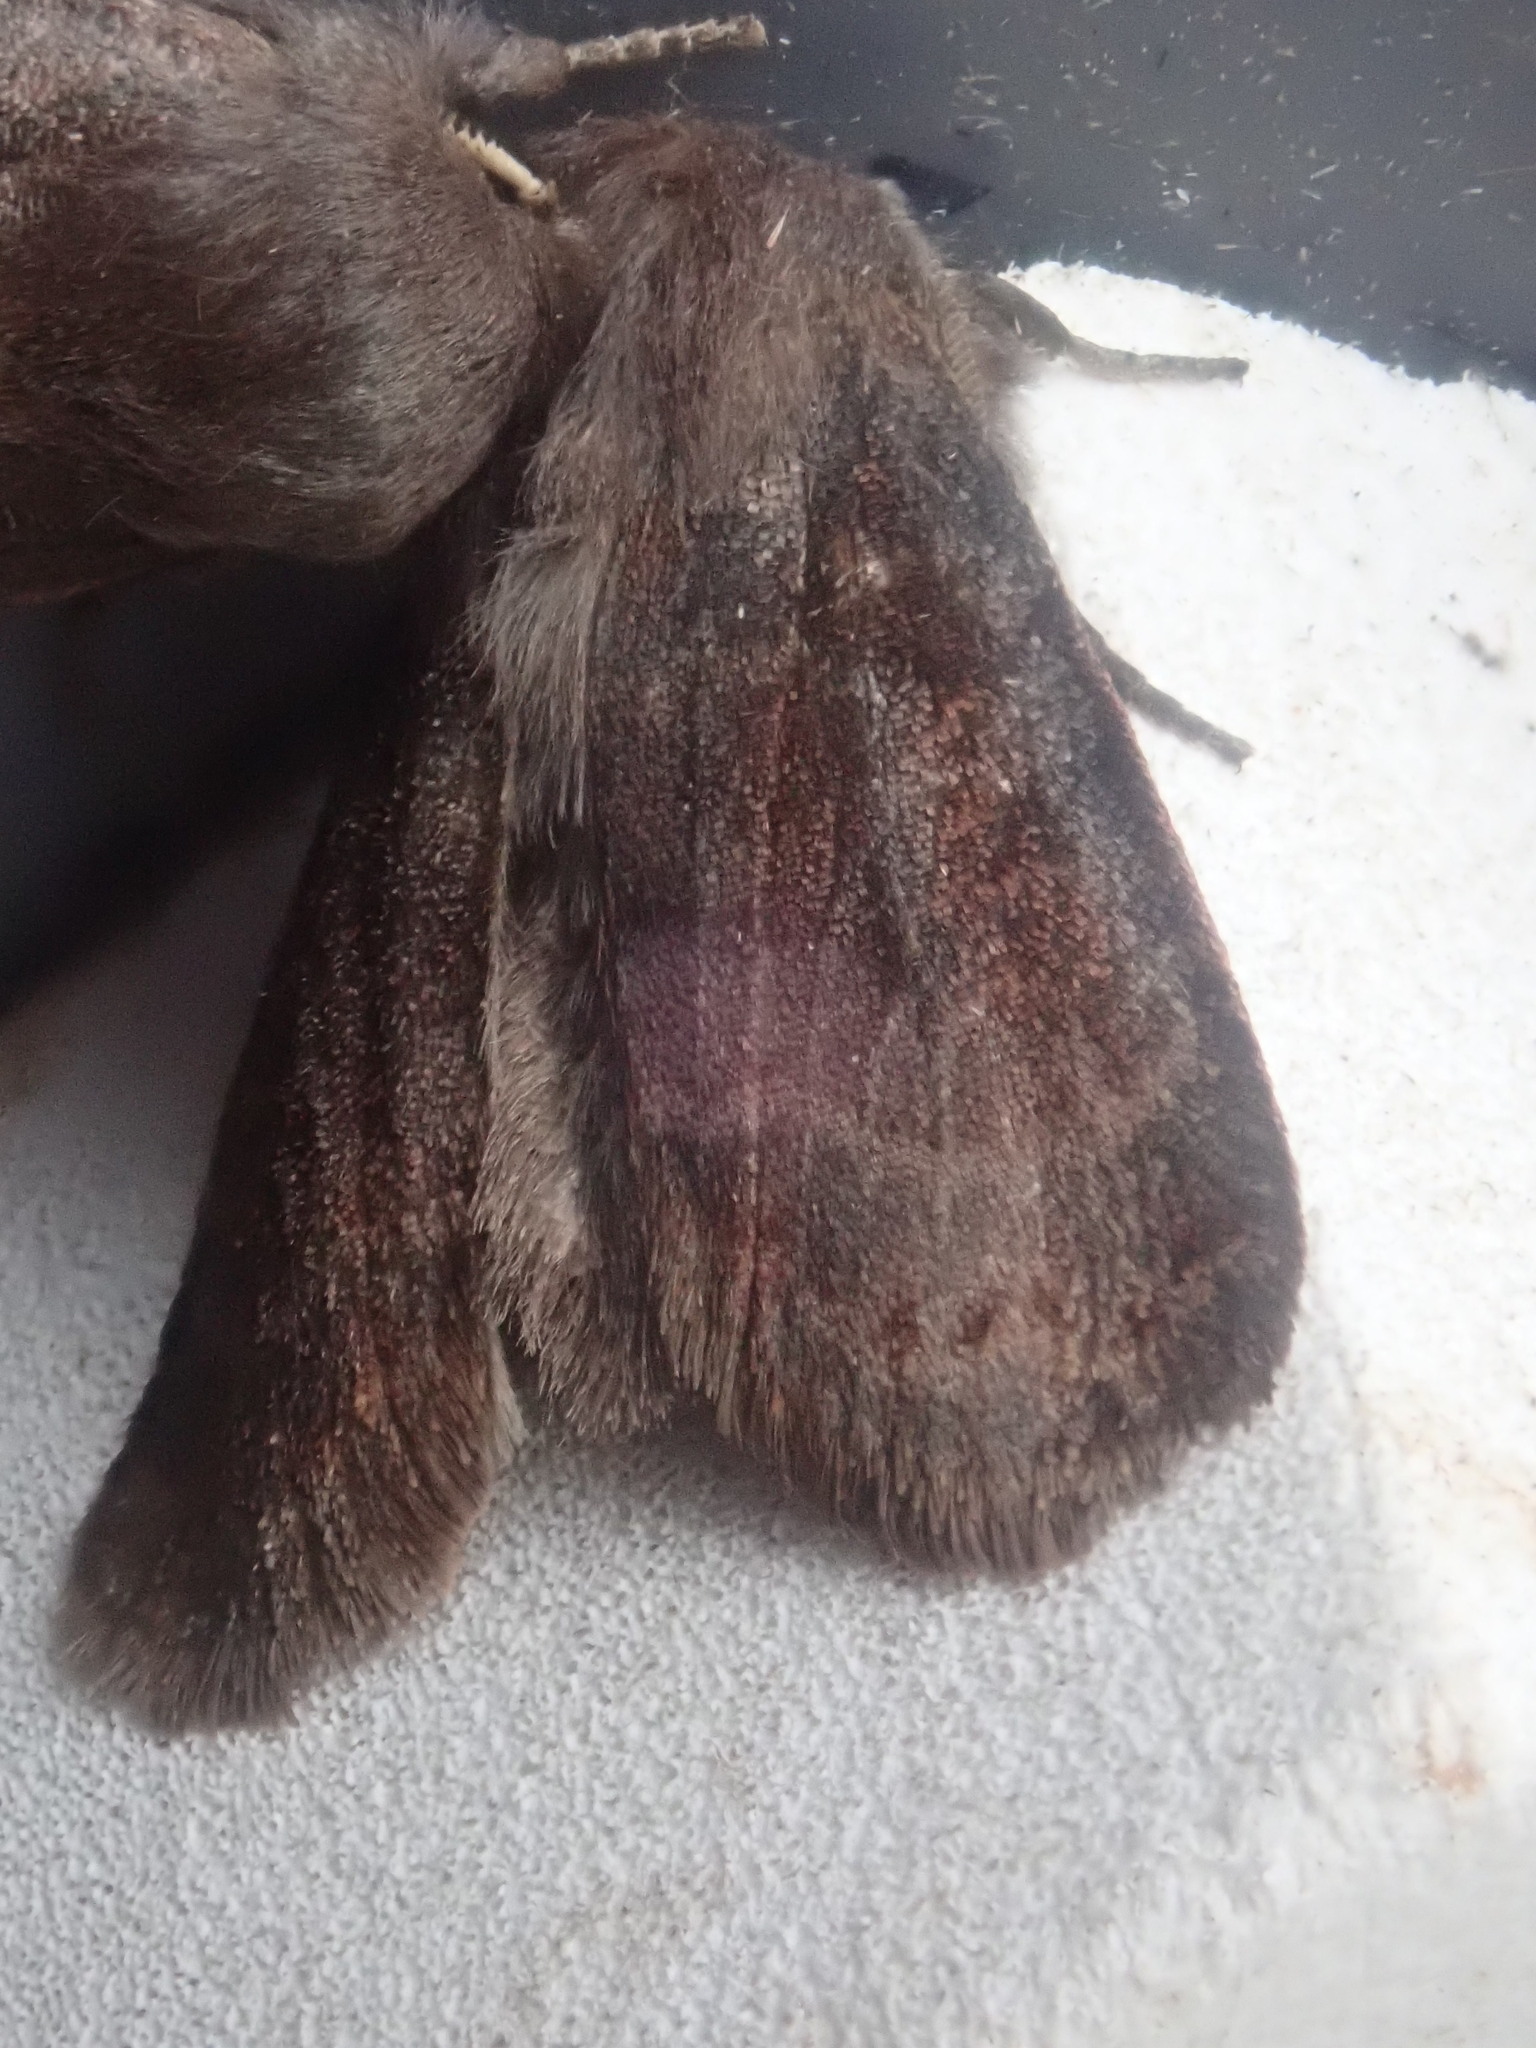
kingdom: Animalia
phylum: Arthropoda
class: Insecta
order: Lepidoptera
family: Noctuidae
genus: Homoglaea
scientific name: Homoglaea hircina
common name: Goat sallow
